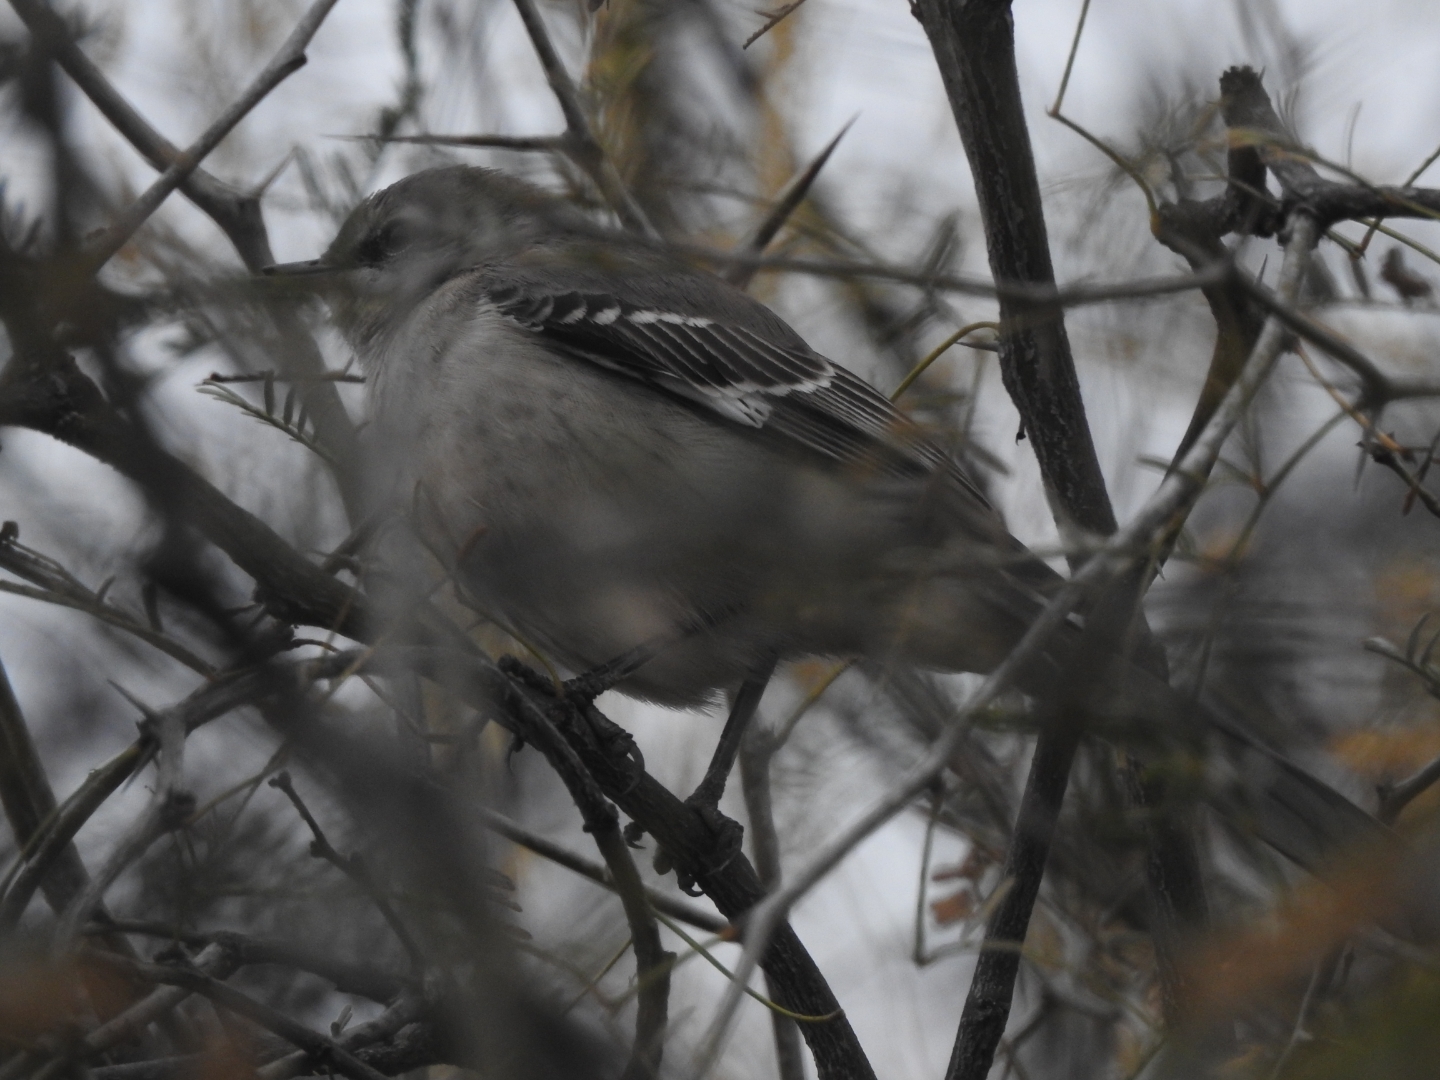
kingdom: Animalia
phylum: Chordata
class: Aves
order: Passeriformes
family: Mimidae
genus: Mimus
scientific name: Mimus polyglottos
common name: Northern mockingbird
